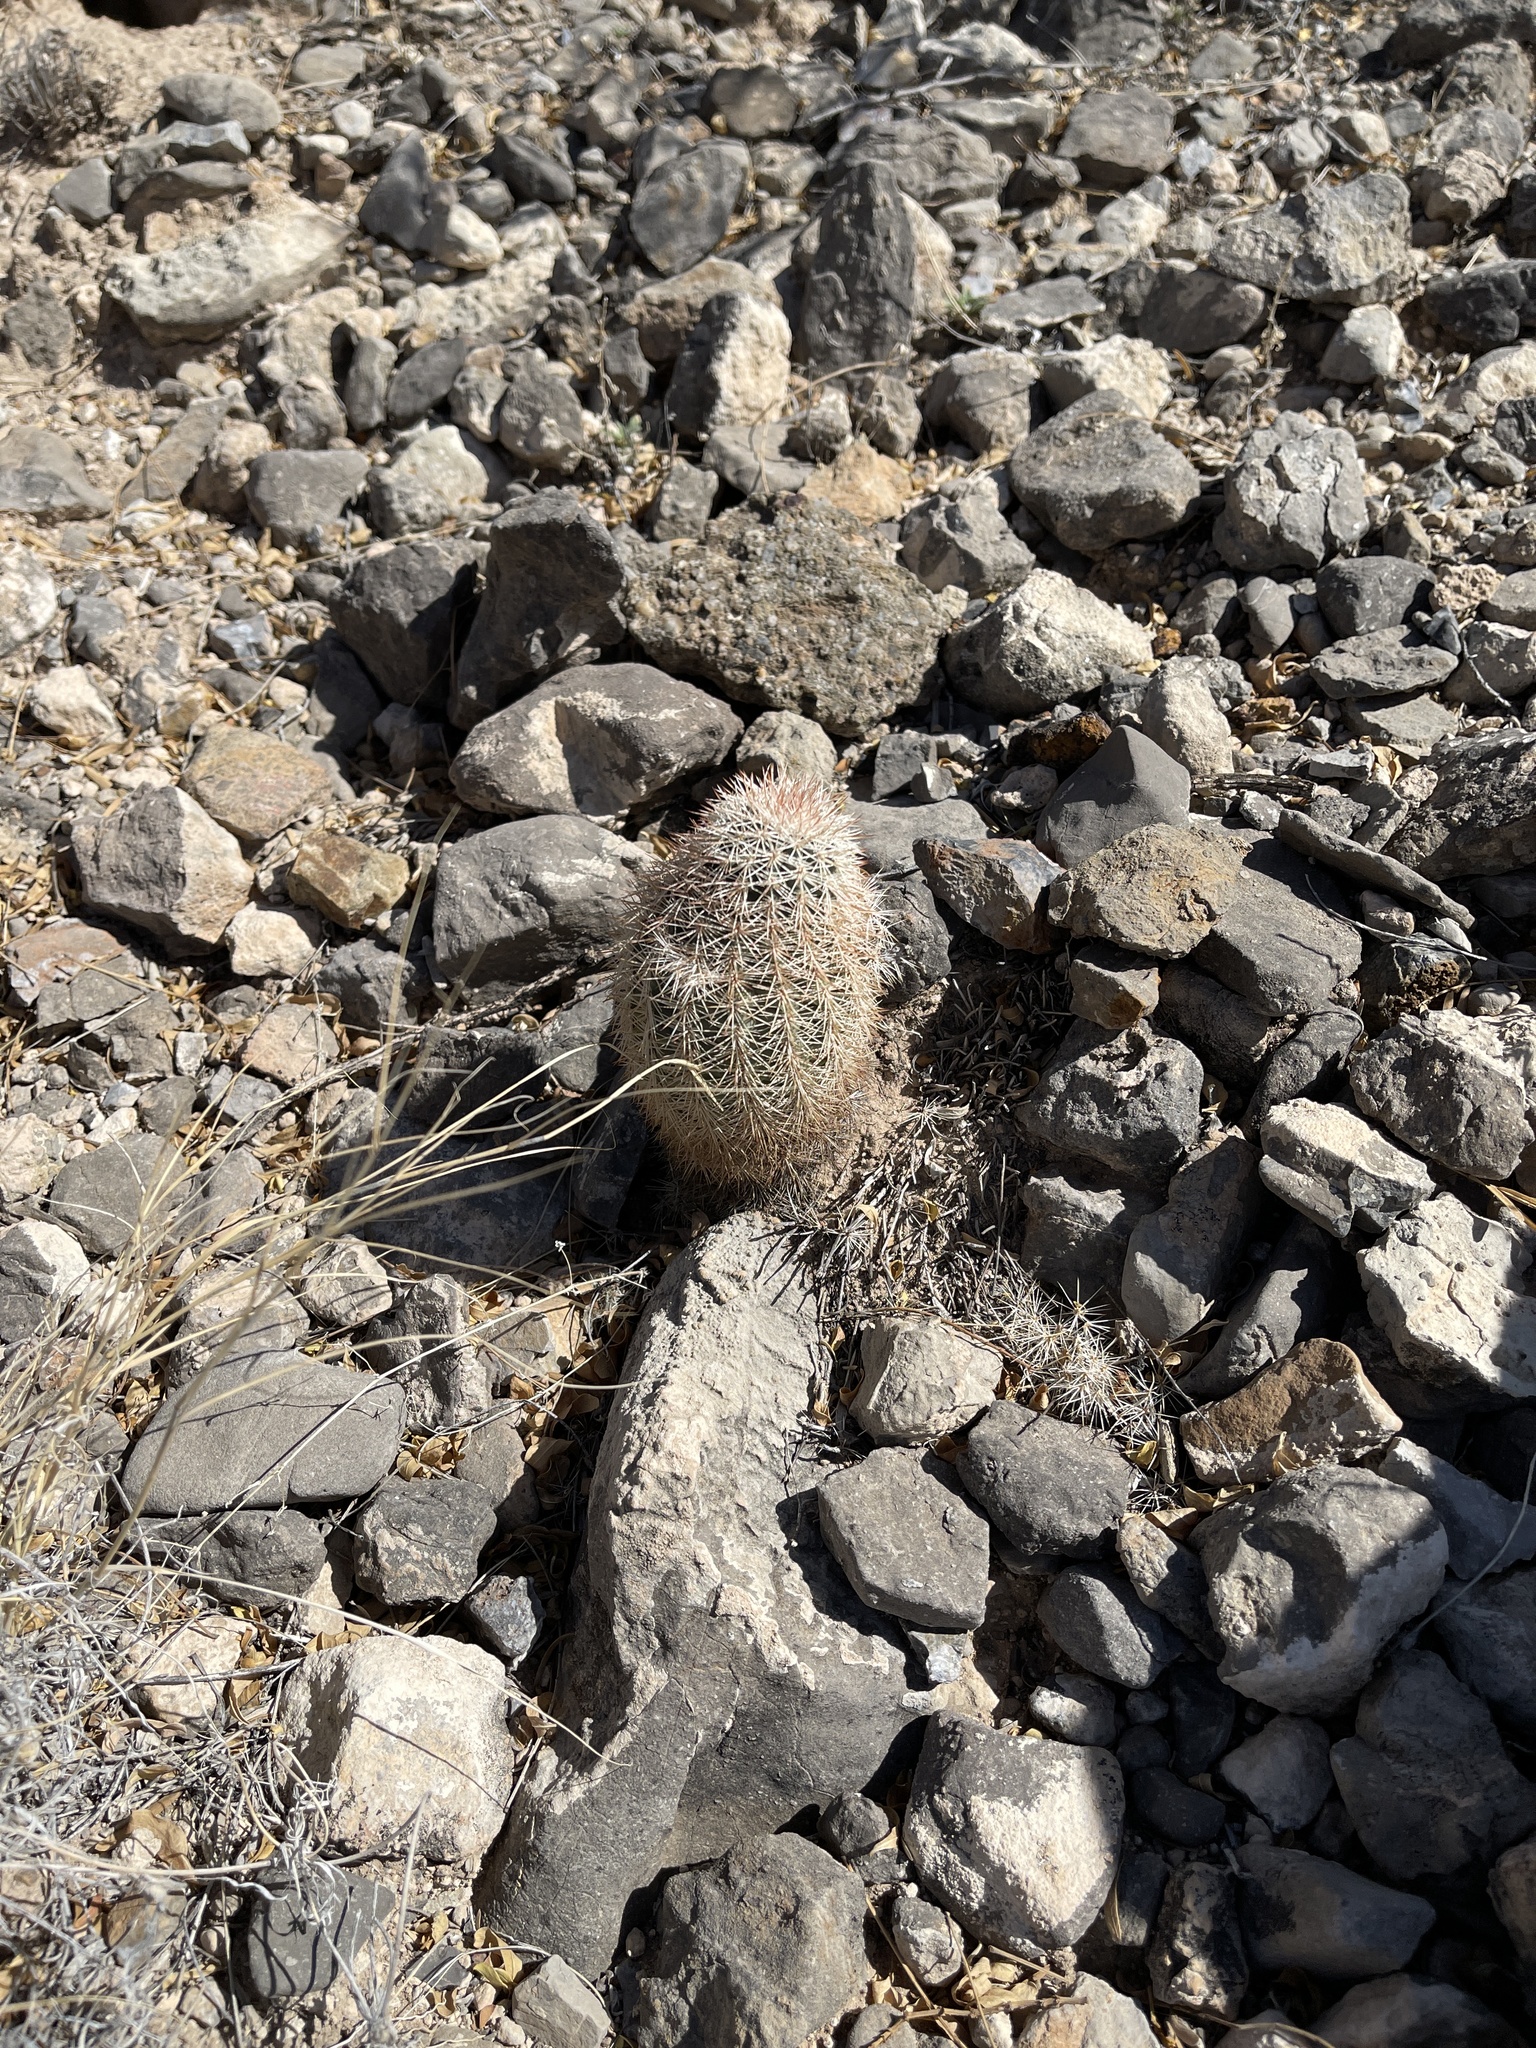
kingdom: Plantae
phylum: Tracheophyta
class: Magnoliopsida
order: Caryophyllales
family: Cactaceae
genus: Echinocereus
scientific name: Echinocereus dasyacanthus
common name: Spiny hedgehog cactus
